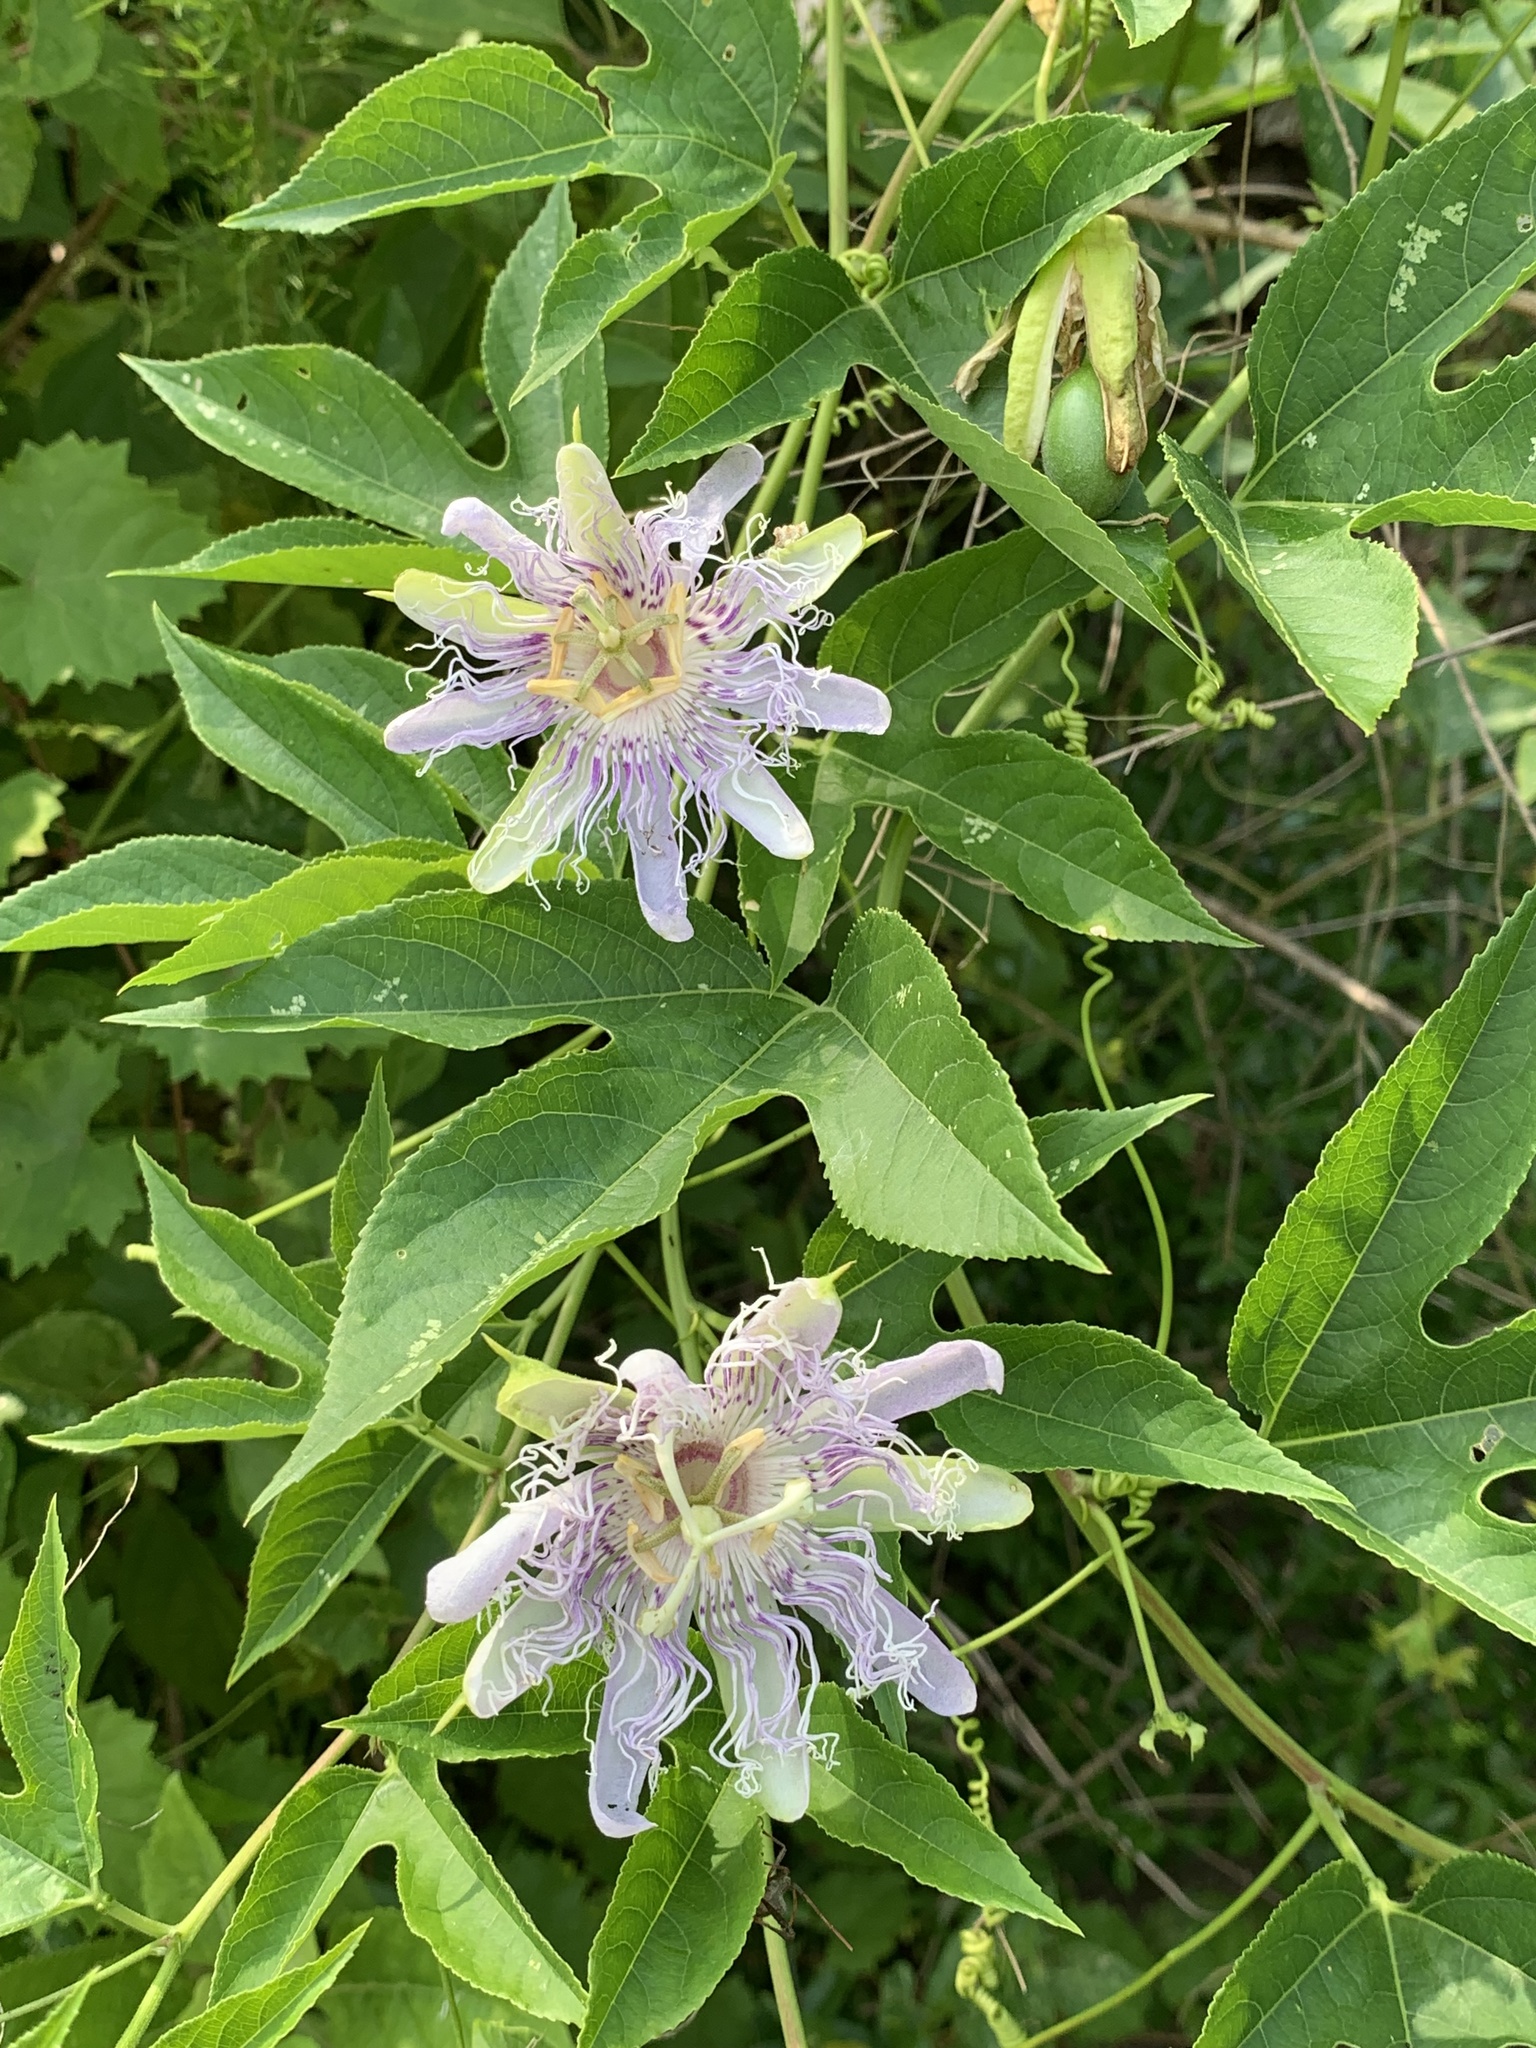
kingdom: Plantae
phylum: Tracheophyta
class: Magnoliopsida
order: Malpighiales
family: Passifloraceae
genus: Passiflora
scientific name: Passiflora incarnata
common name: Apricot-vine
